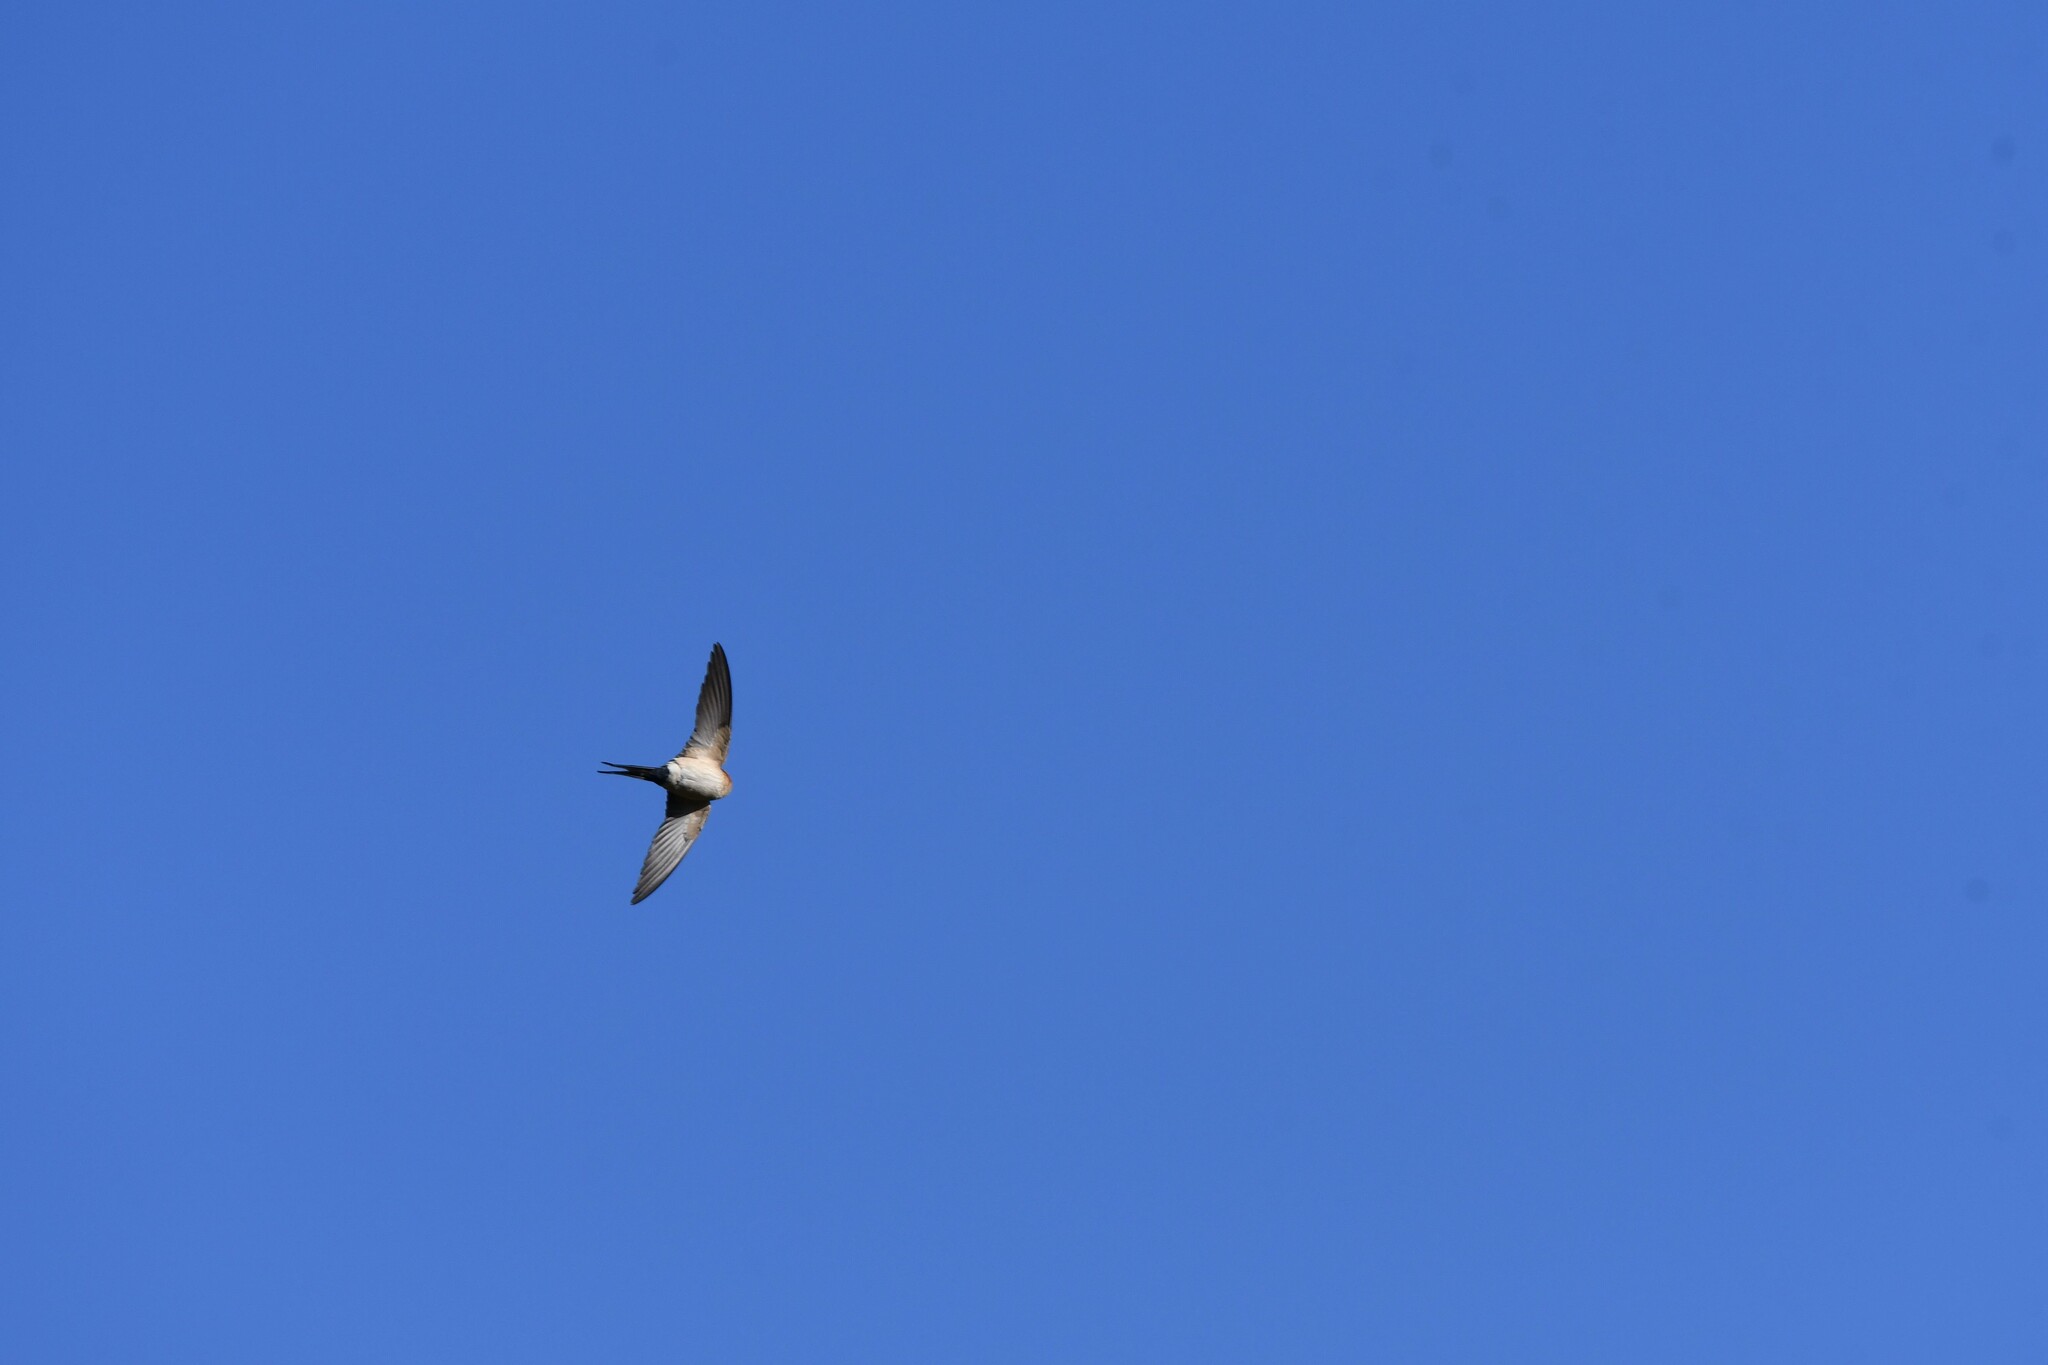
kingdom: Animalia
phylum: Chordata
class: Aves
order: Passeriformes
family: Hirundinidae
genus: Cecropis
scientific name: Cecropis daurica
